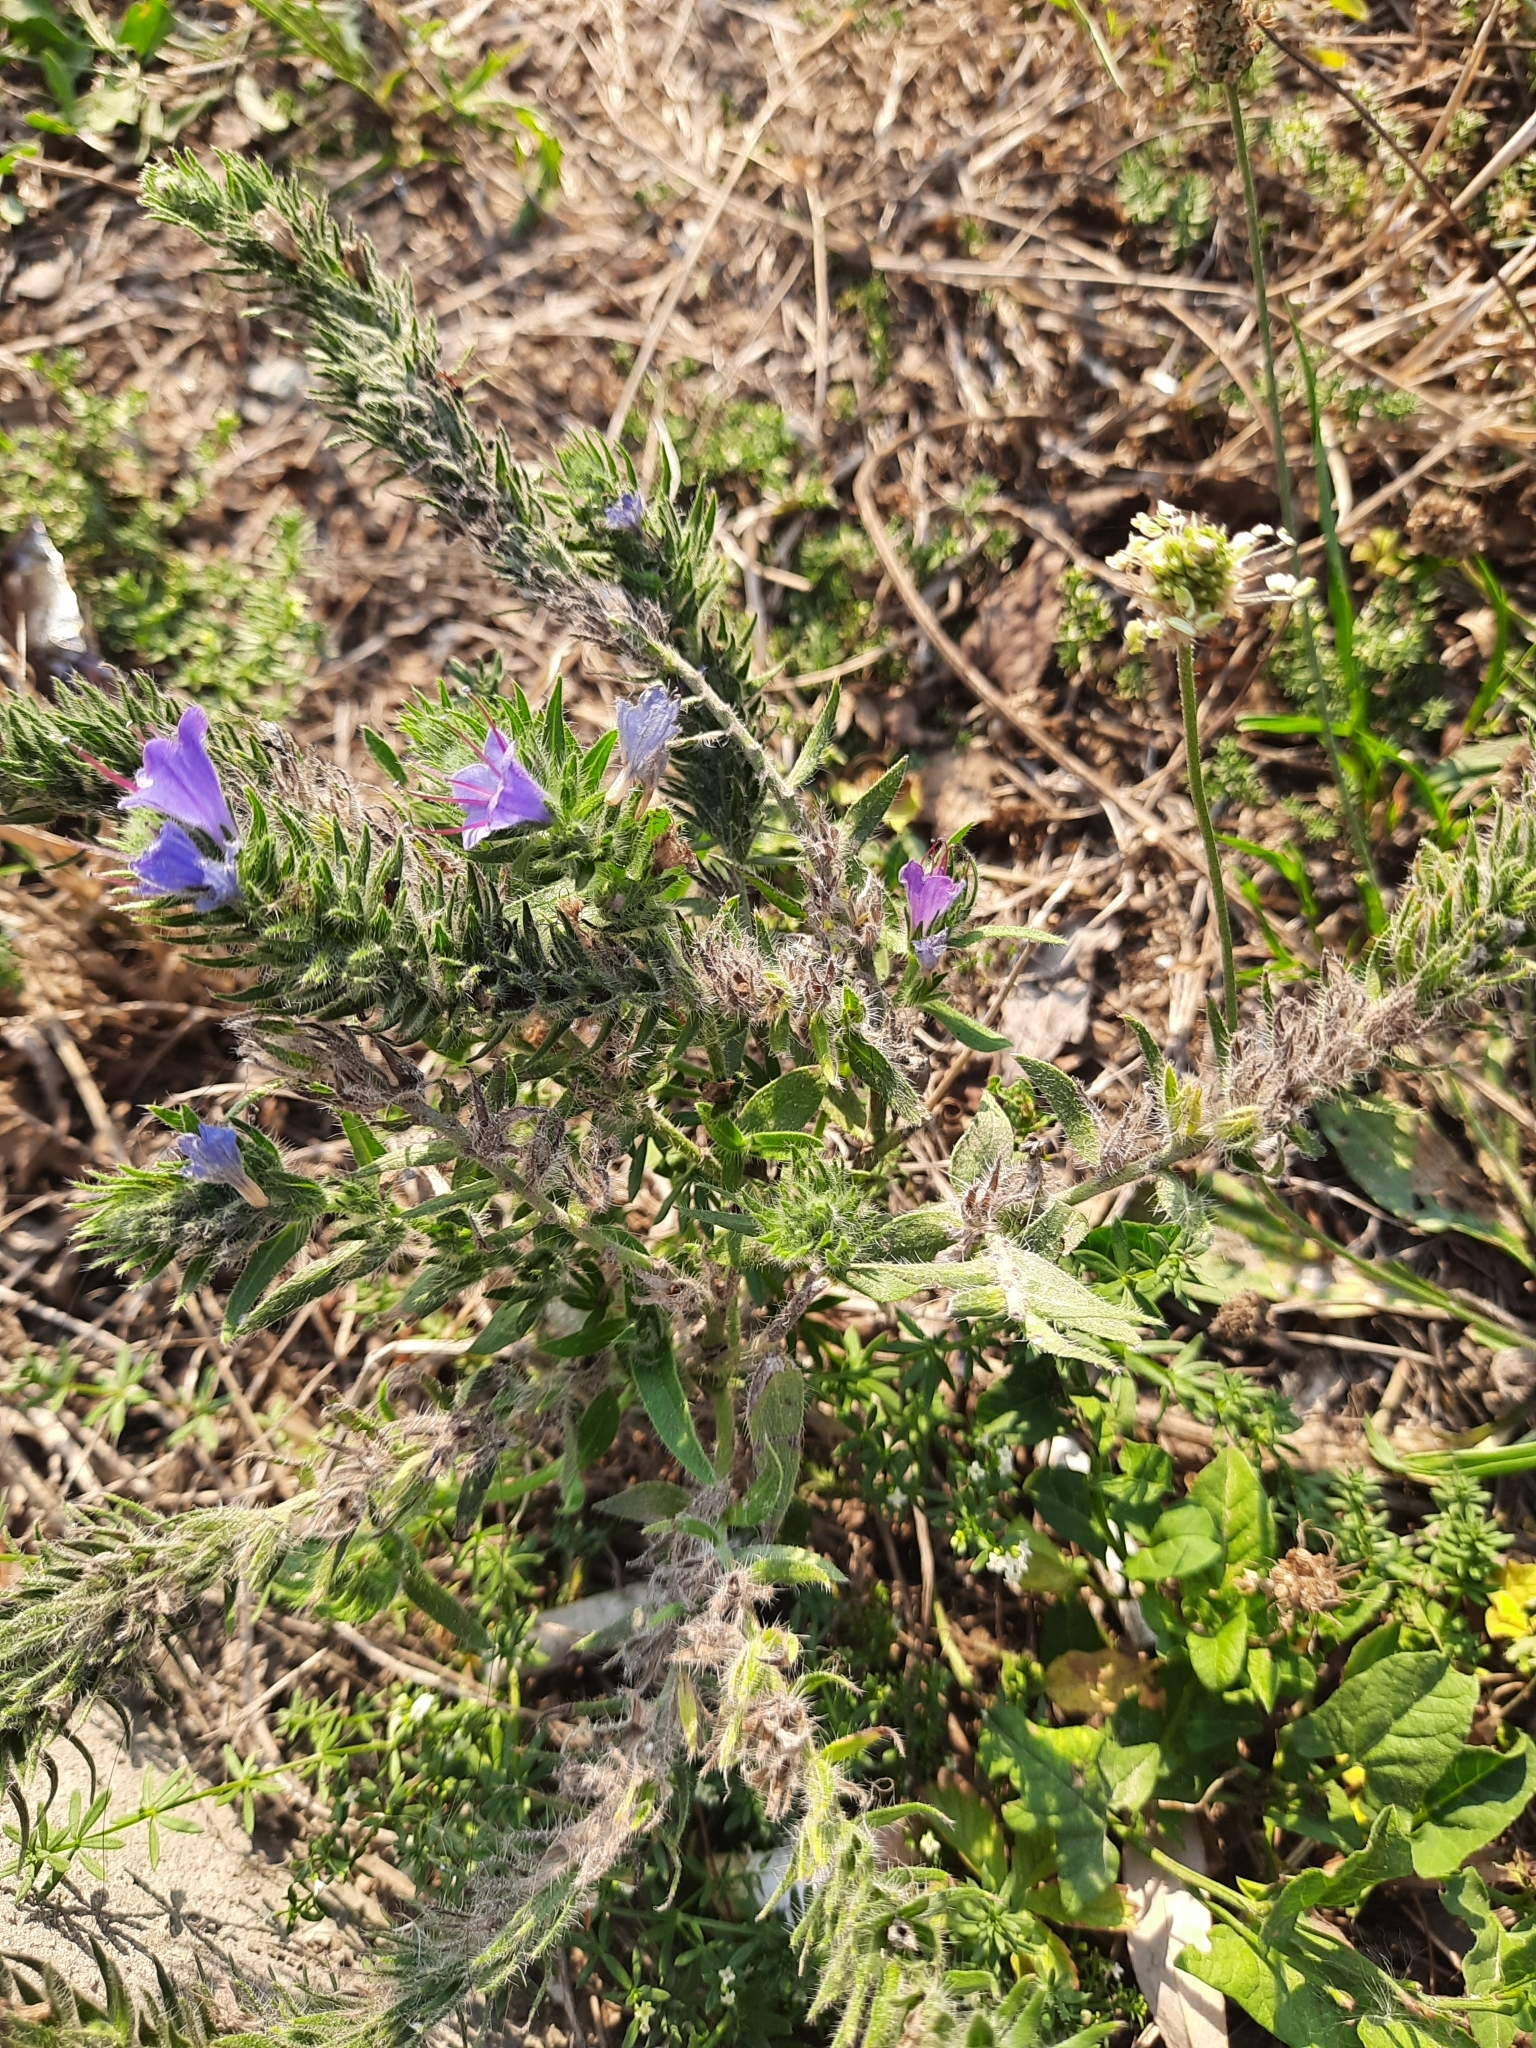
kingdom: Plantae
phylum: Tracheophyta
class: Magnoliopsida
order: Boraginales
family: Boraginaceae
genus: Echium
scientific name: Echium vulgare
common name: Common viper's bugloss
